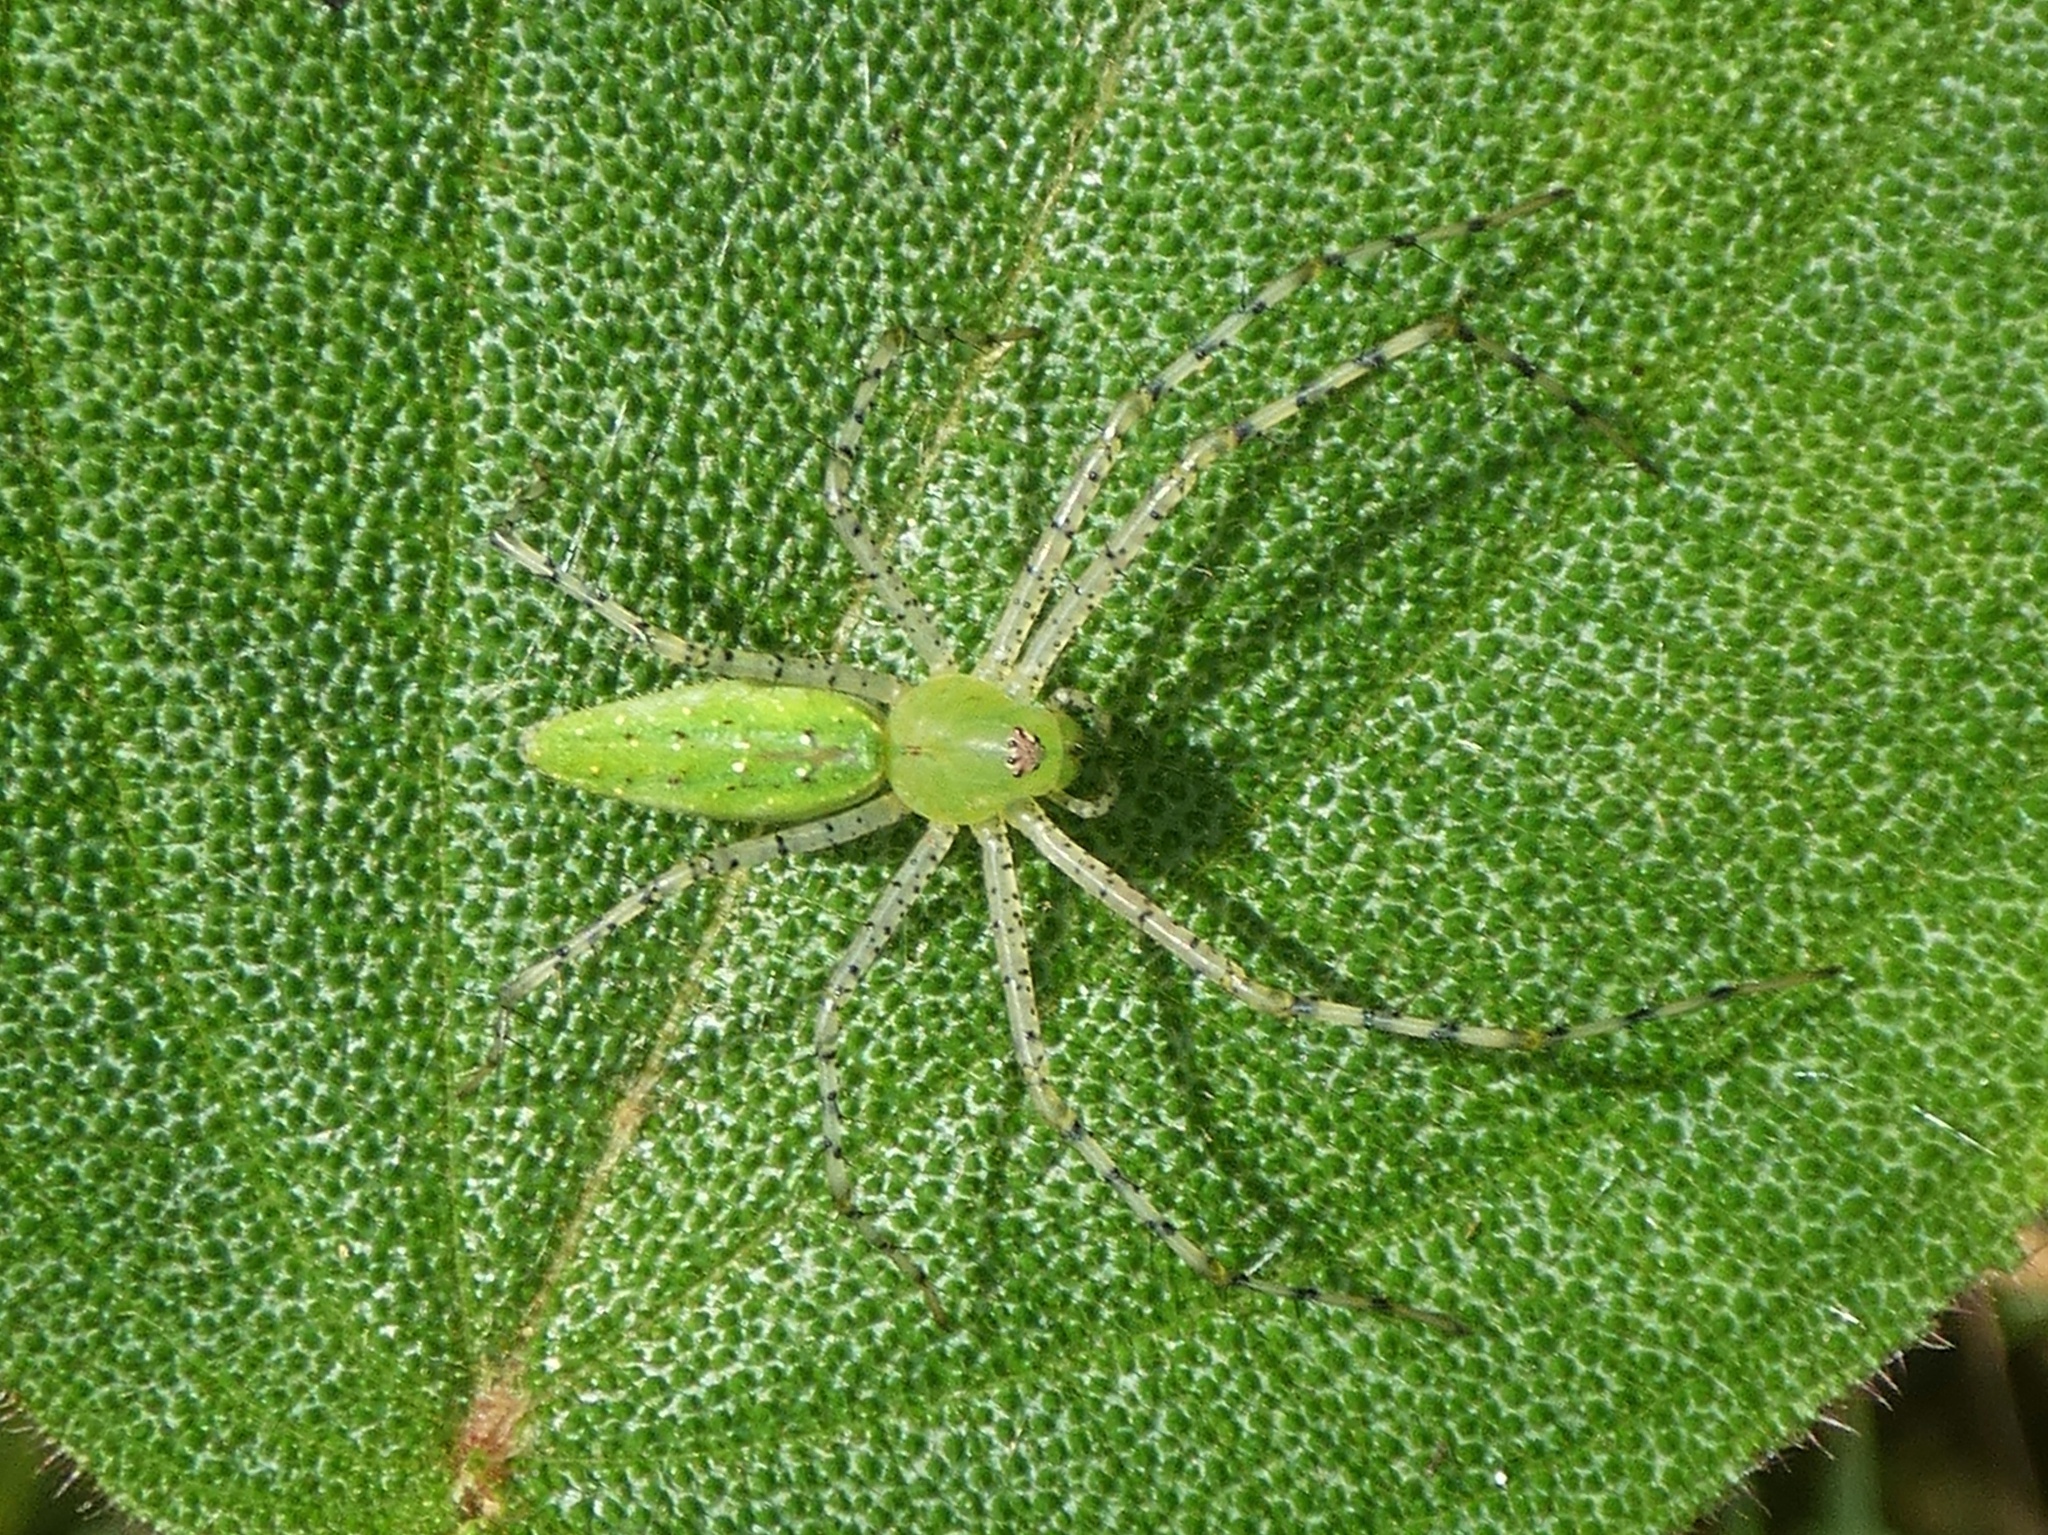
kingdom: Animalia
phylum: Arthropoda
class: Arachnida
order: Araneae
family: Oxyopidae
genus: Peucetia
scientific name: Peucetia viridans
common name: Lynx spiders
